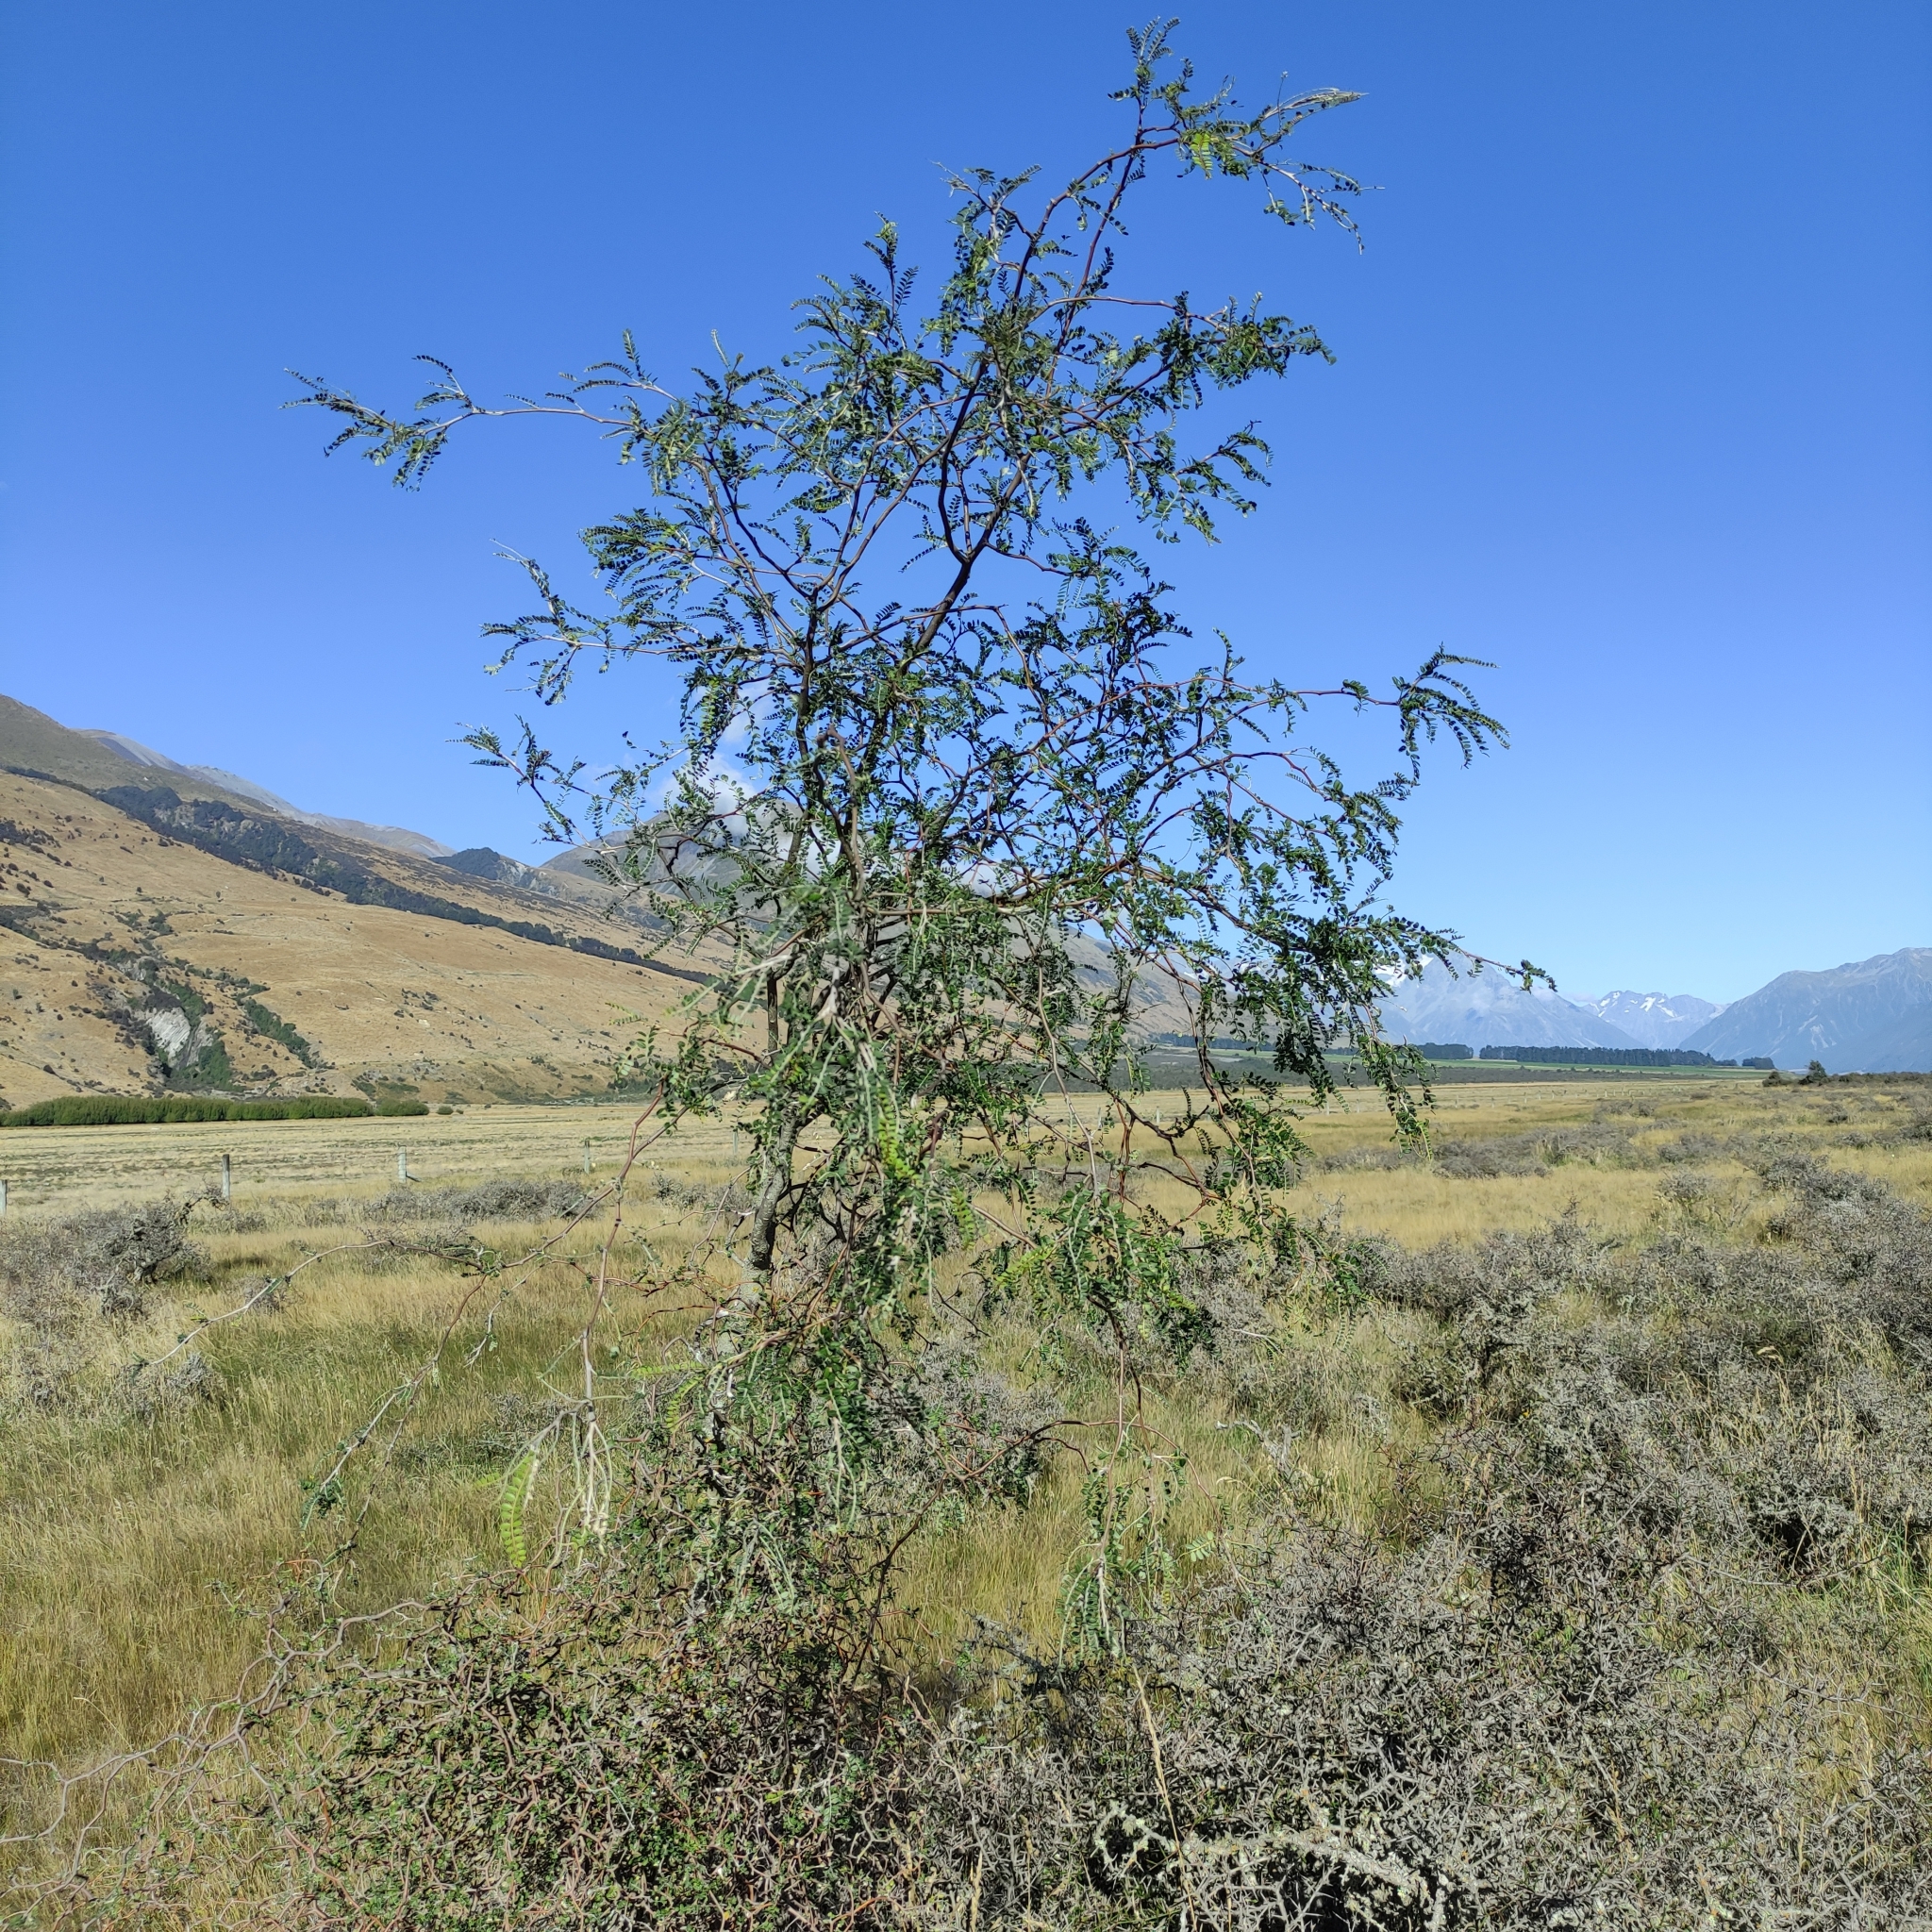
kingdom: Plantae
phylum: Tracheophyta
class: Magnoliopsida
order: Fabales
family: Fabaceae
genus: Sophora
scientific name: Sophora microphylla
